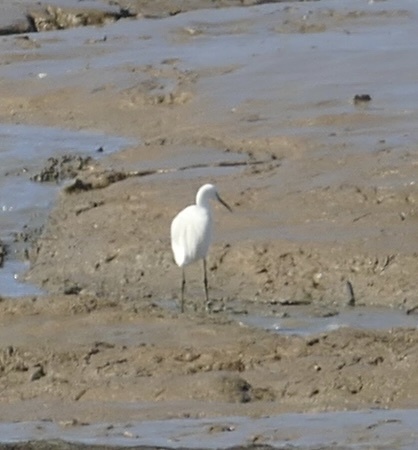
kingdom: Animalia
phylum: Chordata
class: Aves
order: Pelecaniformes
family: Ardeidae
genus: Egretta
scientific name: Egretta garzetta
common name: Little egret
